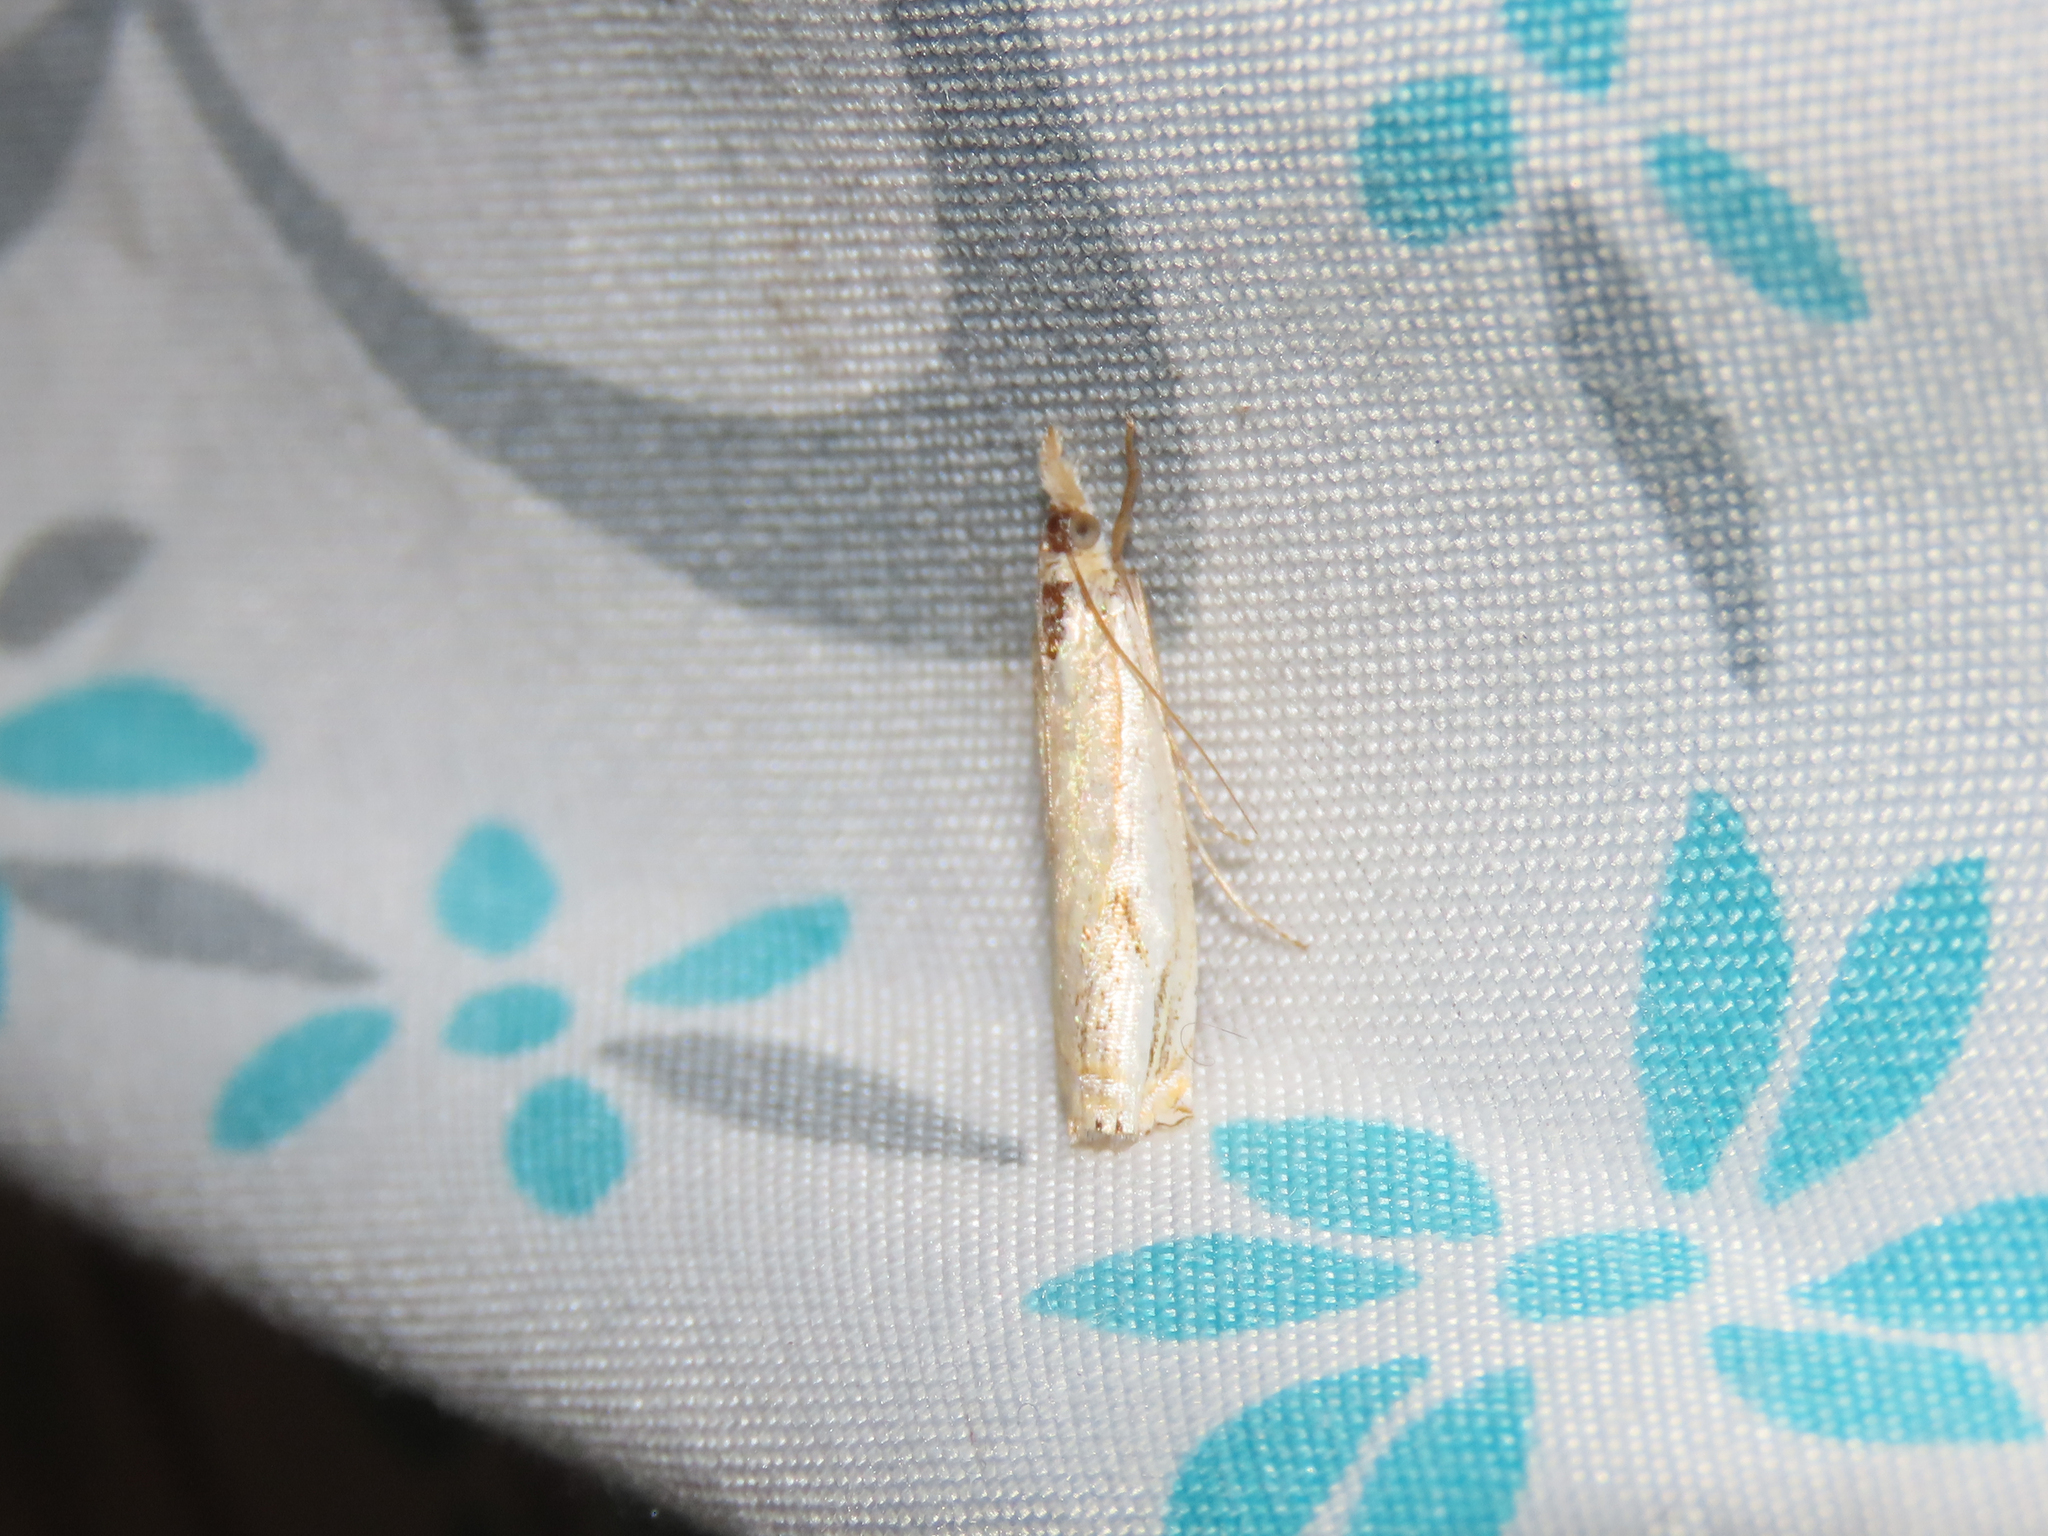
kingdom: Animalia
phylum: Arthropoda
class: Insecta
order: Lepidoptera
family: Crambidae
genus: Crambus
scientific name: Crambus agitatellus
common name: Double-banded grass-veneer
